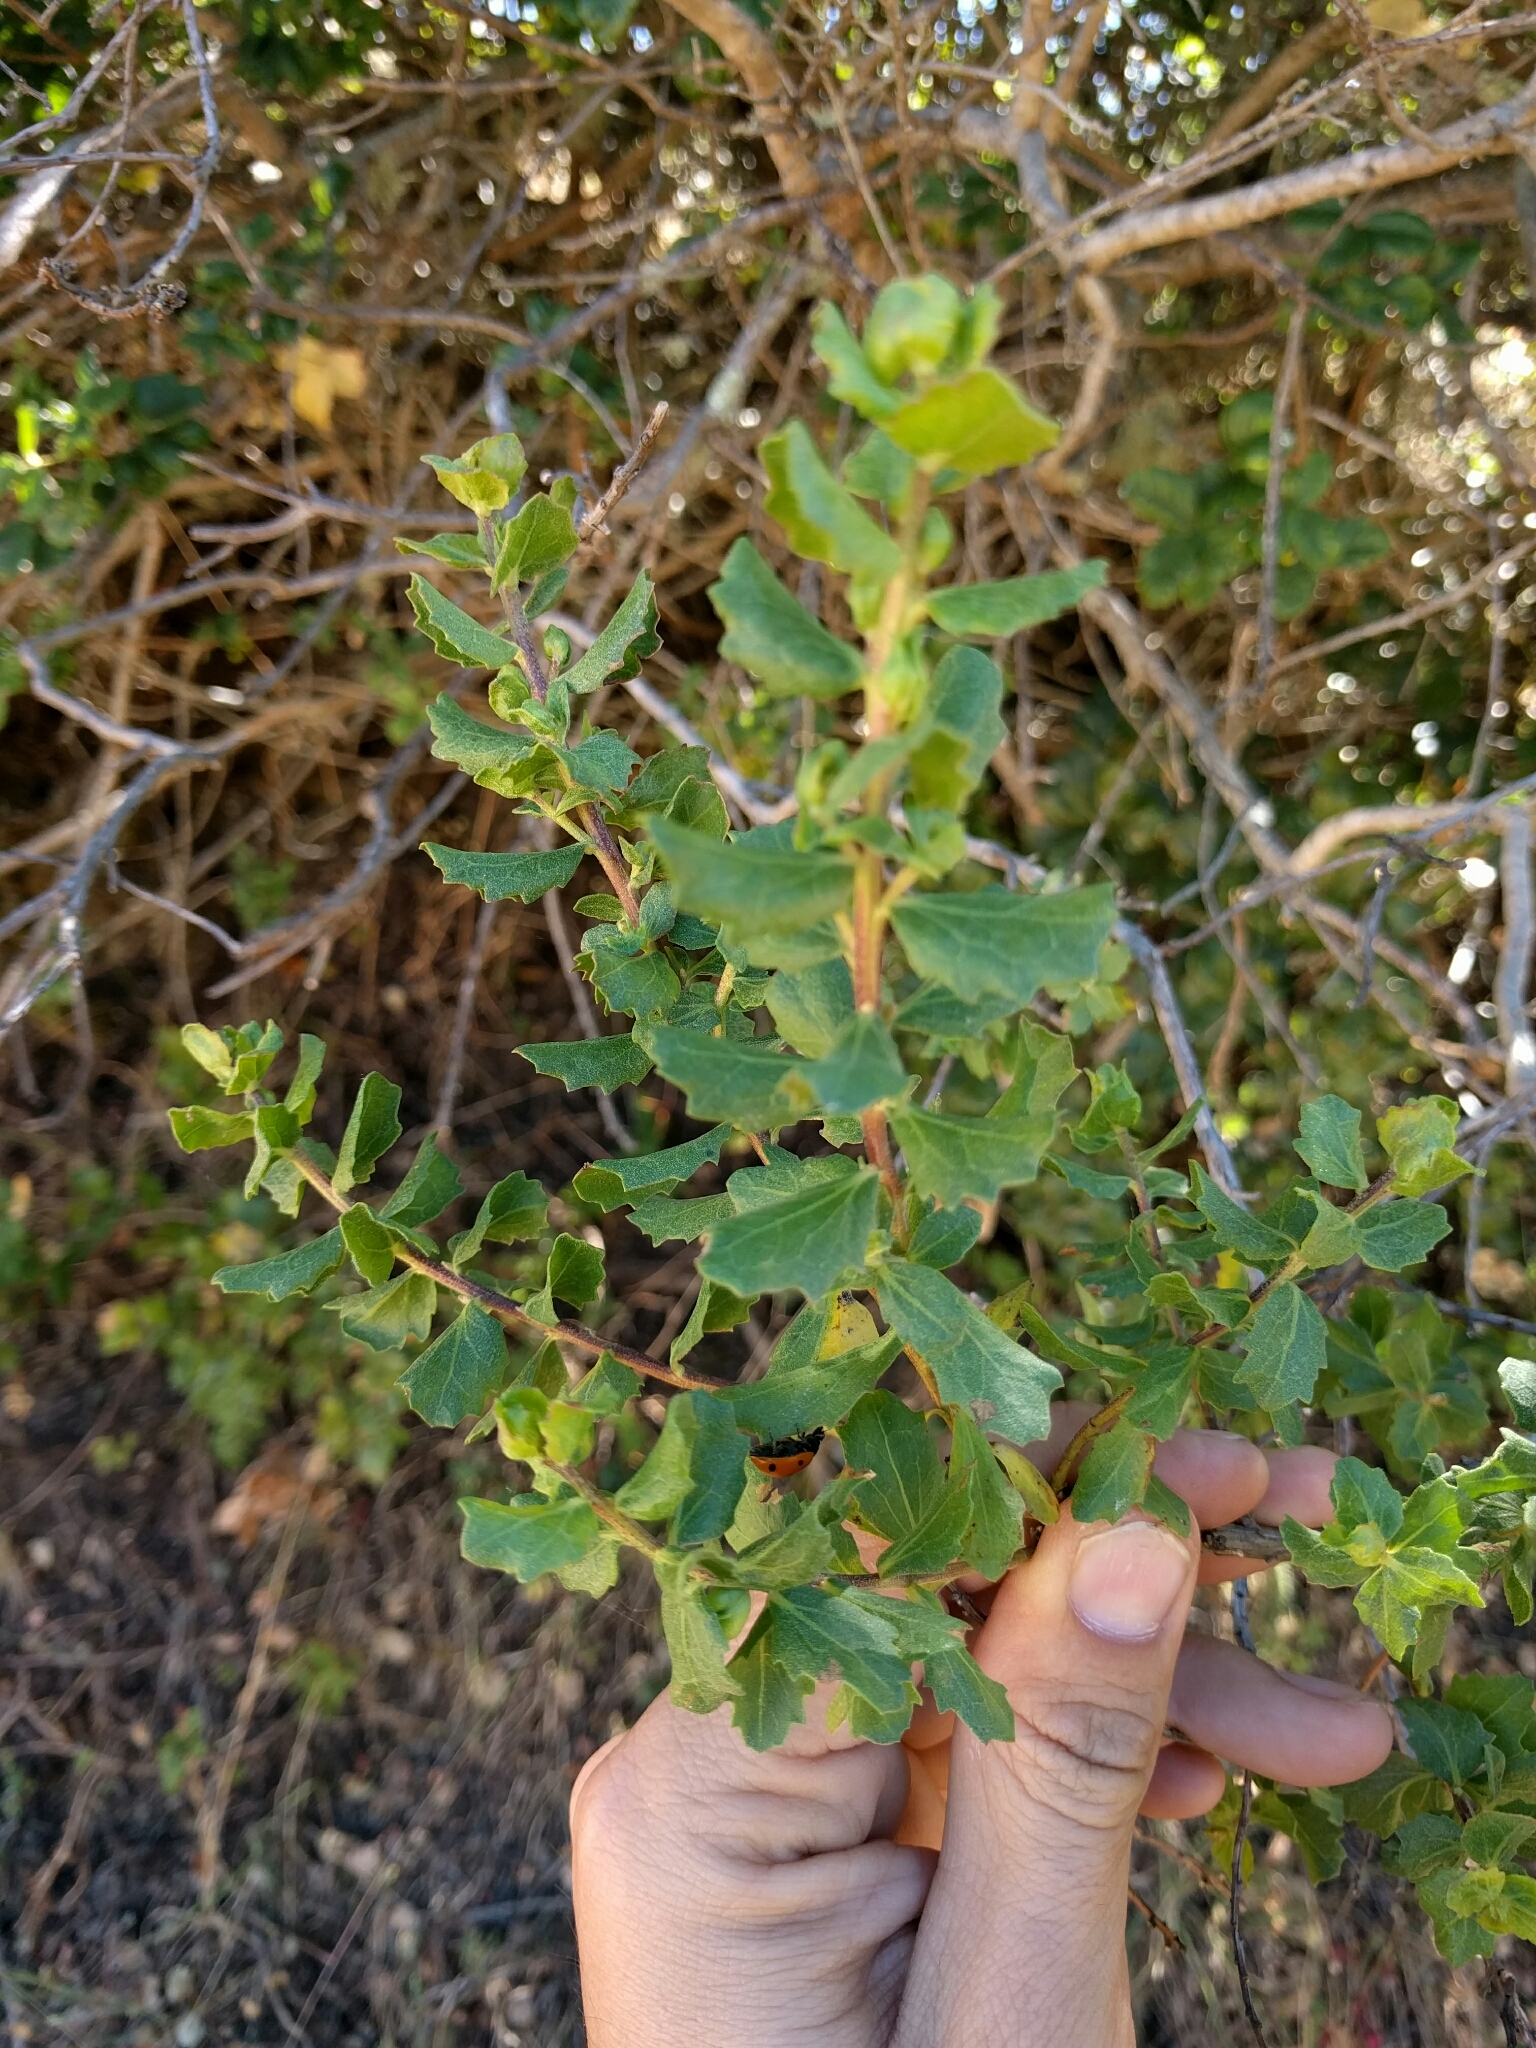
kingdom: Plantae
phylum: Tracheophyta
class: Magnoliopsida
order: Asterales
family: Asteraceae
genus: Baccharis
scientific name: Baccharis pilularis
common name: Coyotebrush
